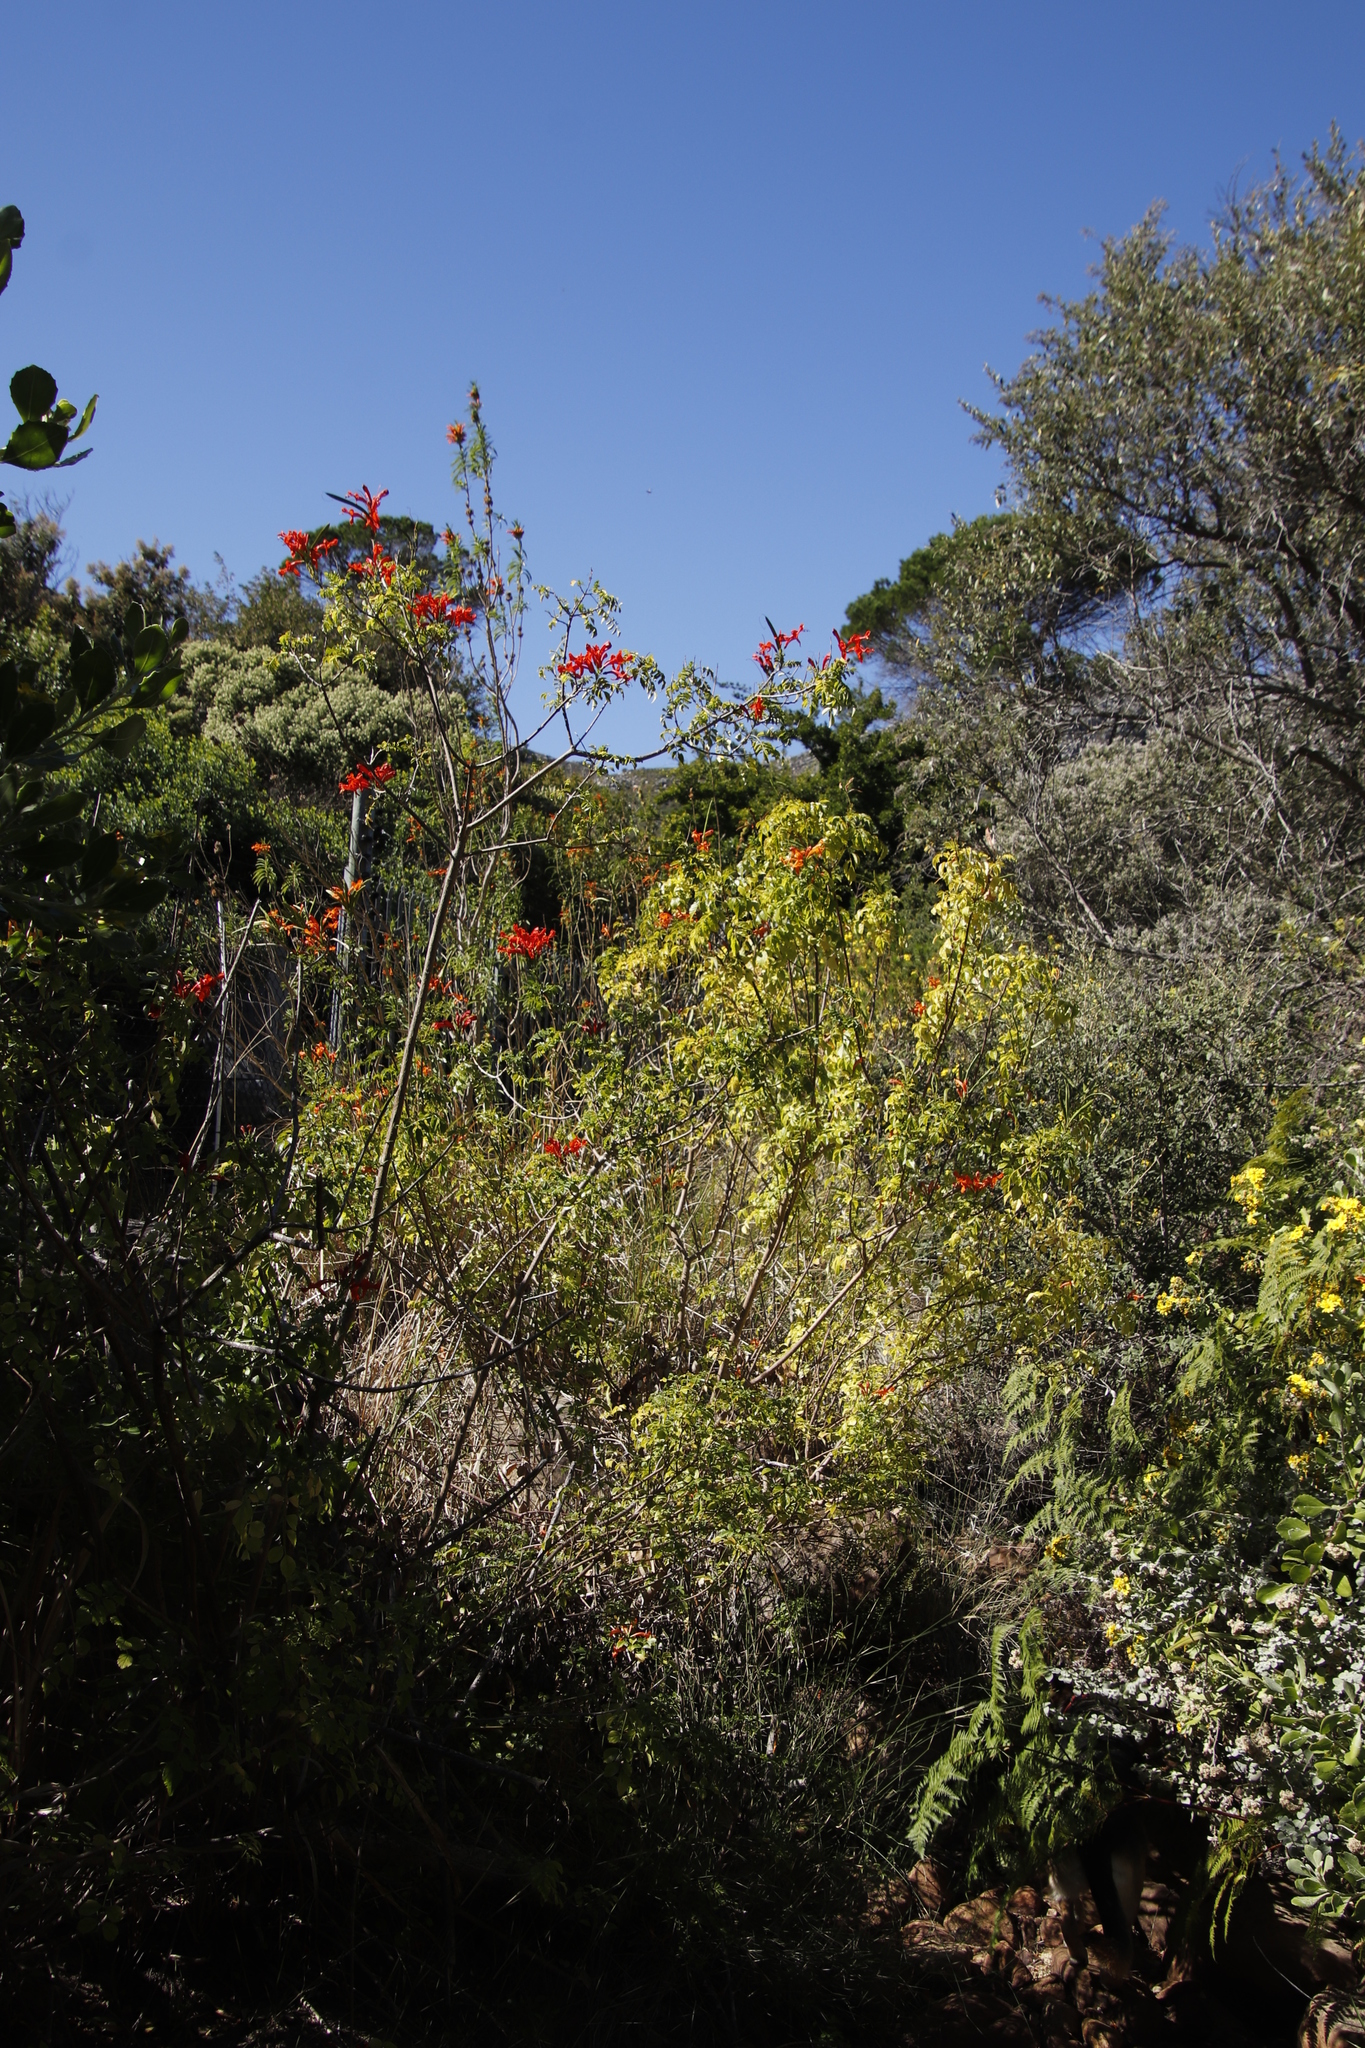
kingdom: Plantae
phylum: Tracheophyta
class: Magnoliopsida
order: Lamiales
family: Bignoniaceae
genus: Tecomaria
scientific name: Tecomaria capensis
